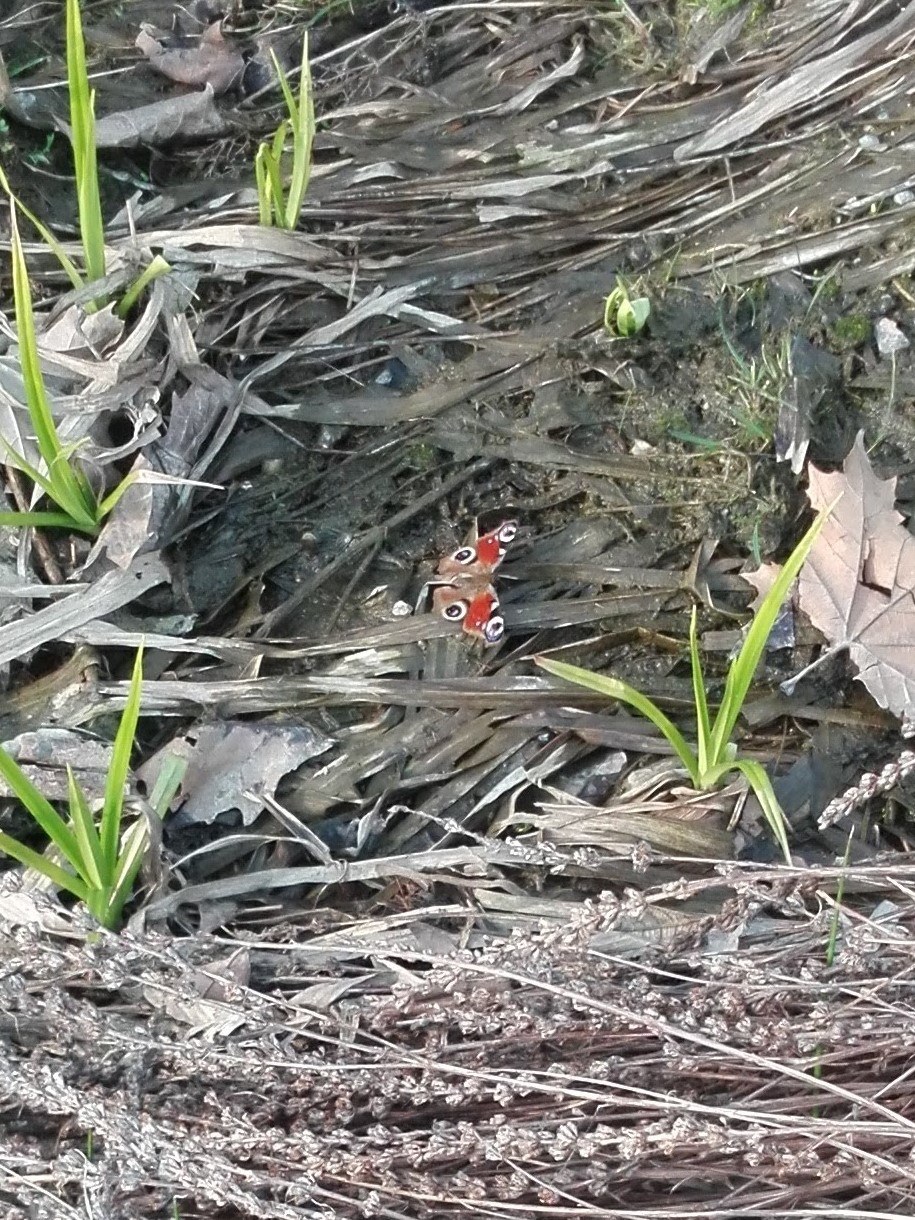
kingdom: Animalia
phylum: Arthropoda
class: Insecta
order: Lepidoptera
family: Nymphalidae
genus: Aglais
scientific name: Aglais io
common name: Peacock
